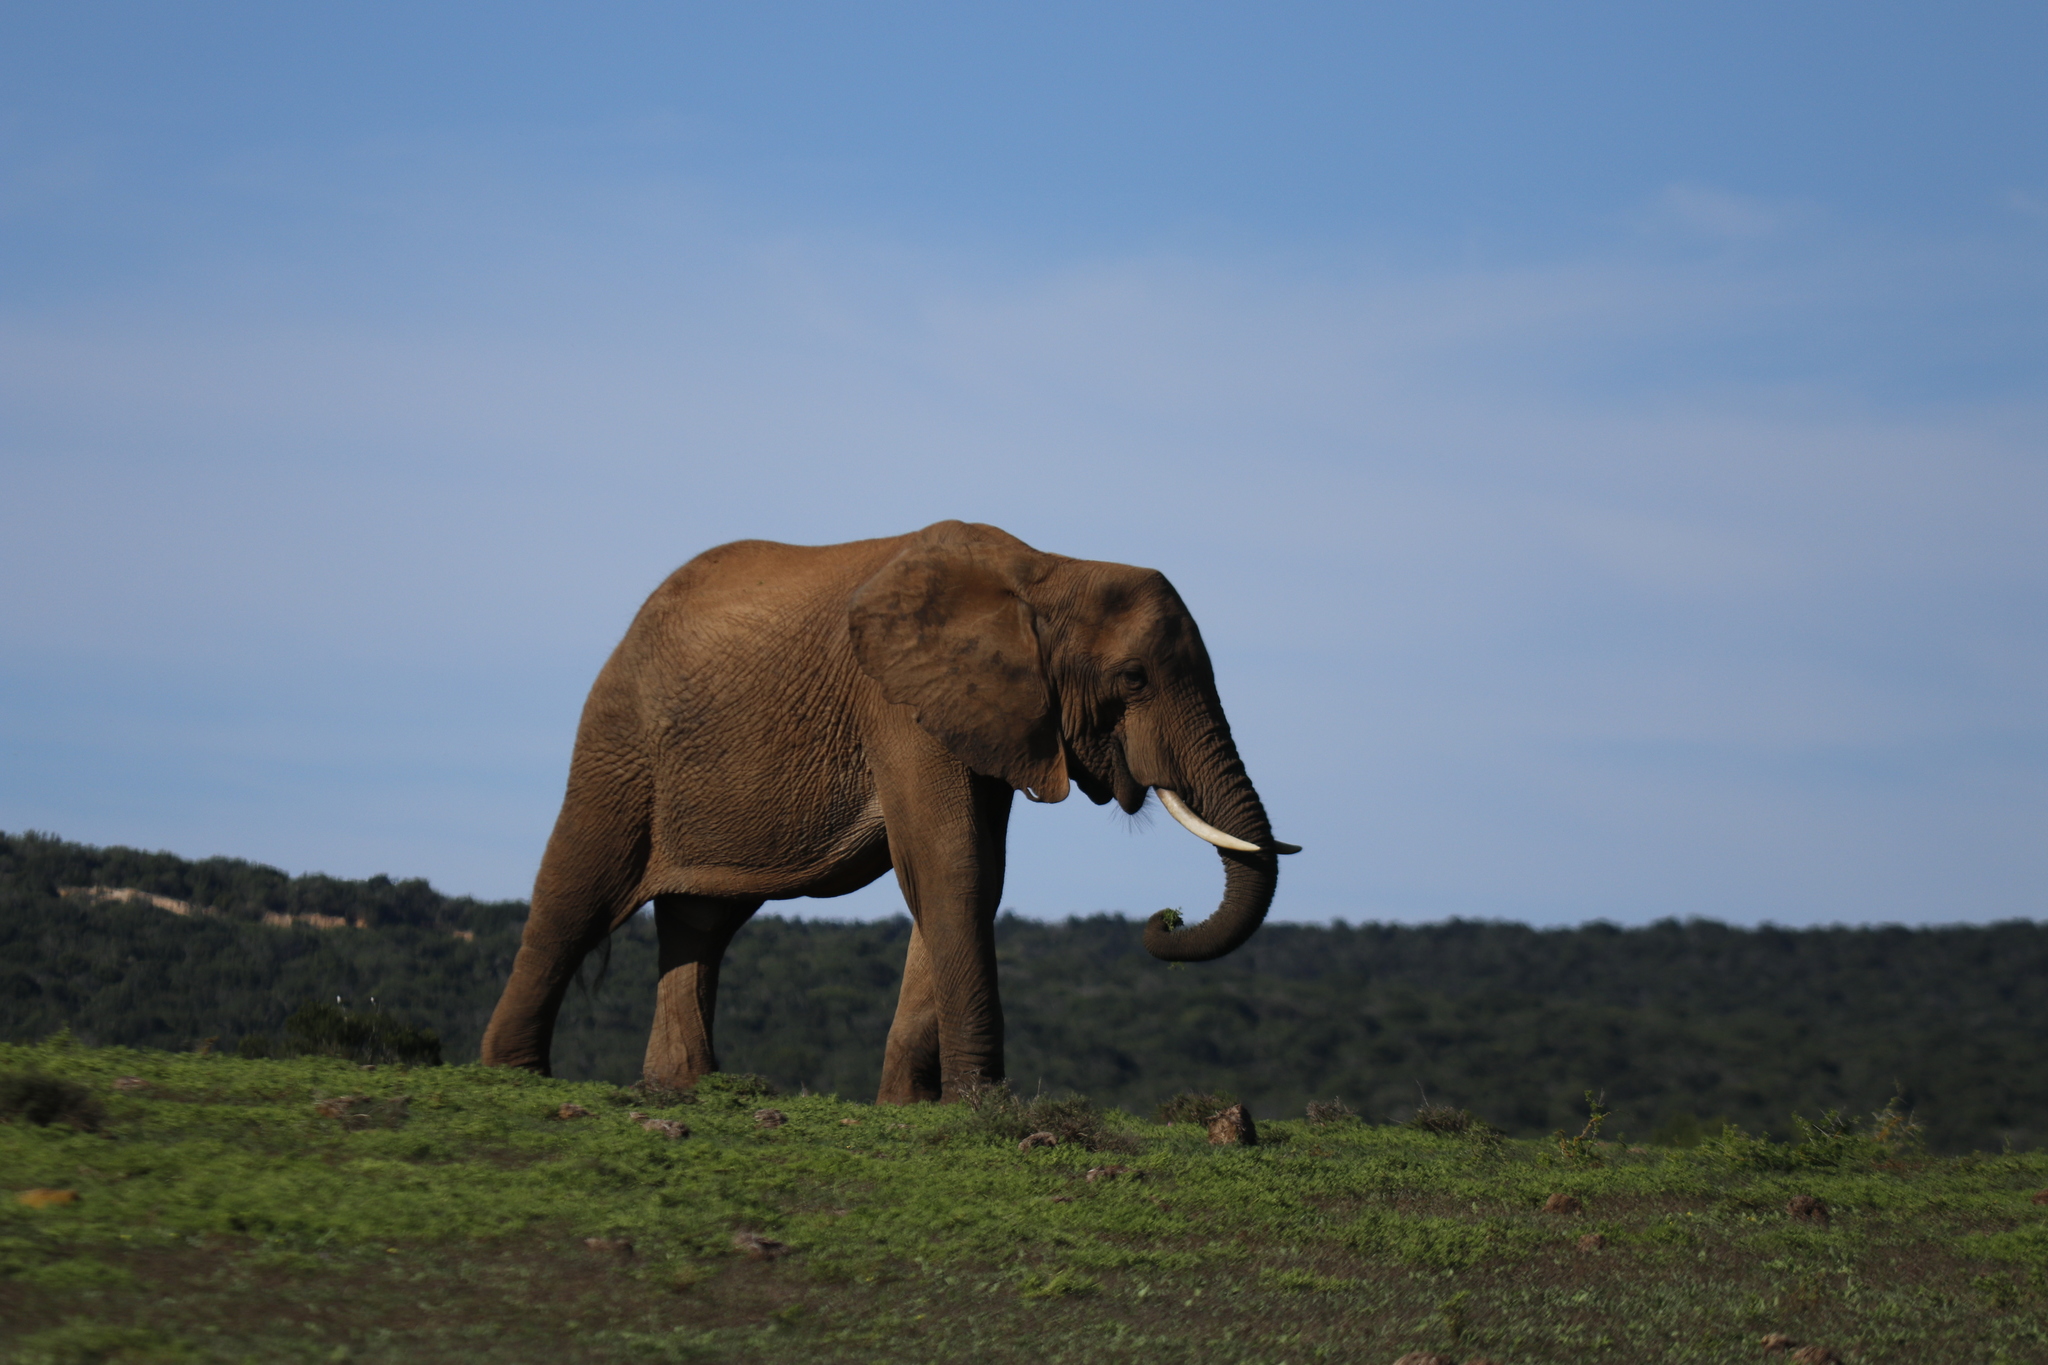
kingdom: Animalia
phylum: Chordata
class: Mammalia
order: Proboscidea
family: Elephantidae
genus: Loxodonta
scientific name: Loxodonta africana
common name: African elephant
